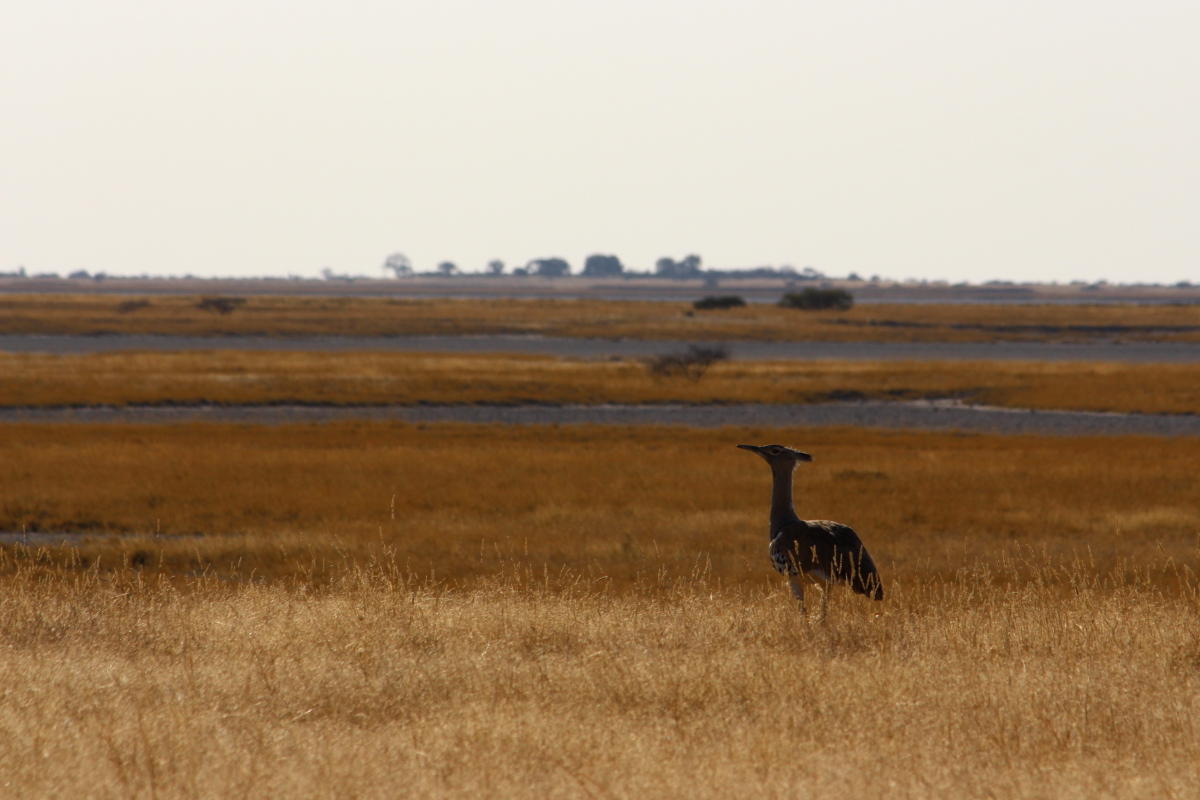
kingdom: Animalia
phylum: Chordata
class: Aves
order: Otidiformes
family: Otididae
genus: Ardeotis
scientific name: Ardeotis kori
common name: Kori bustard
